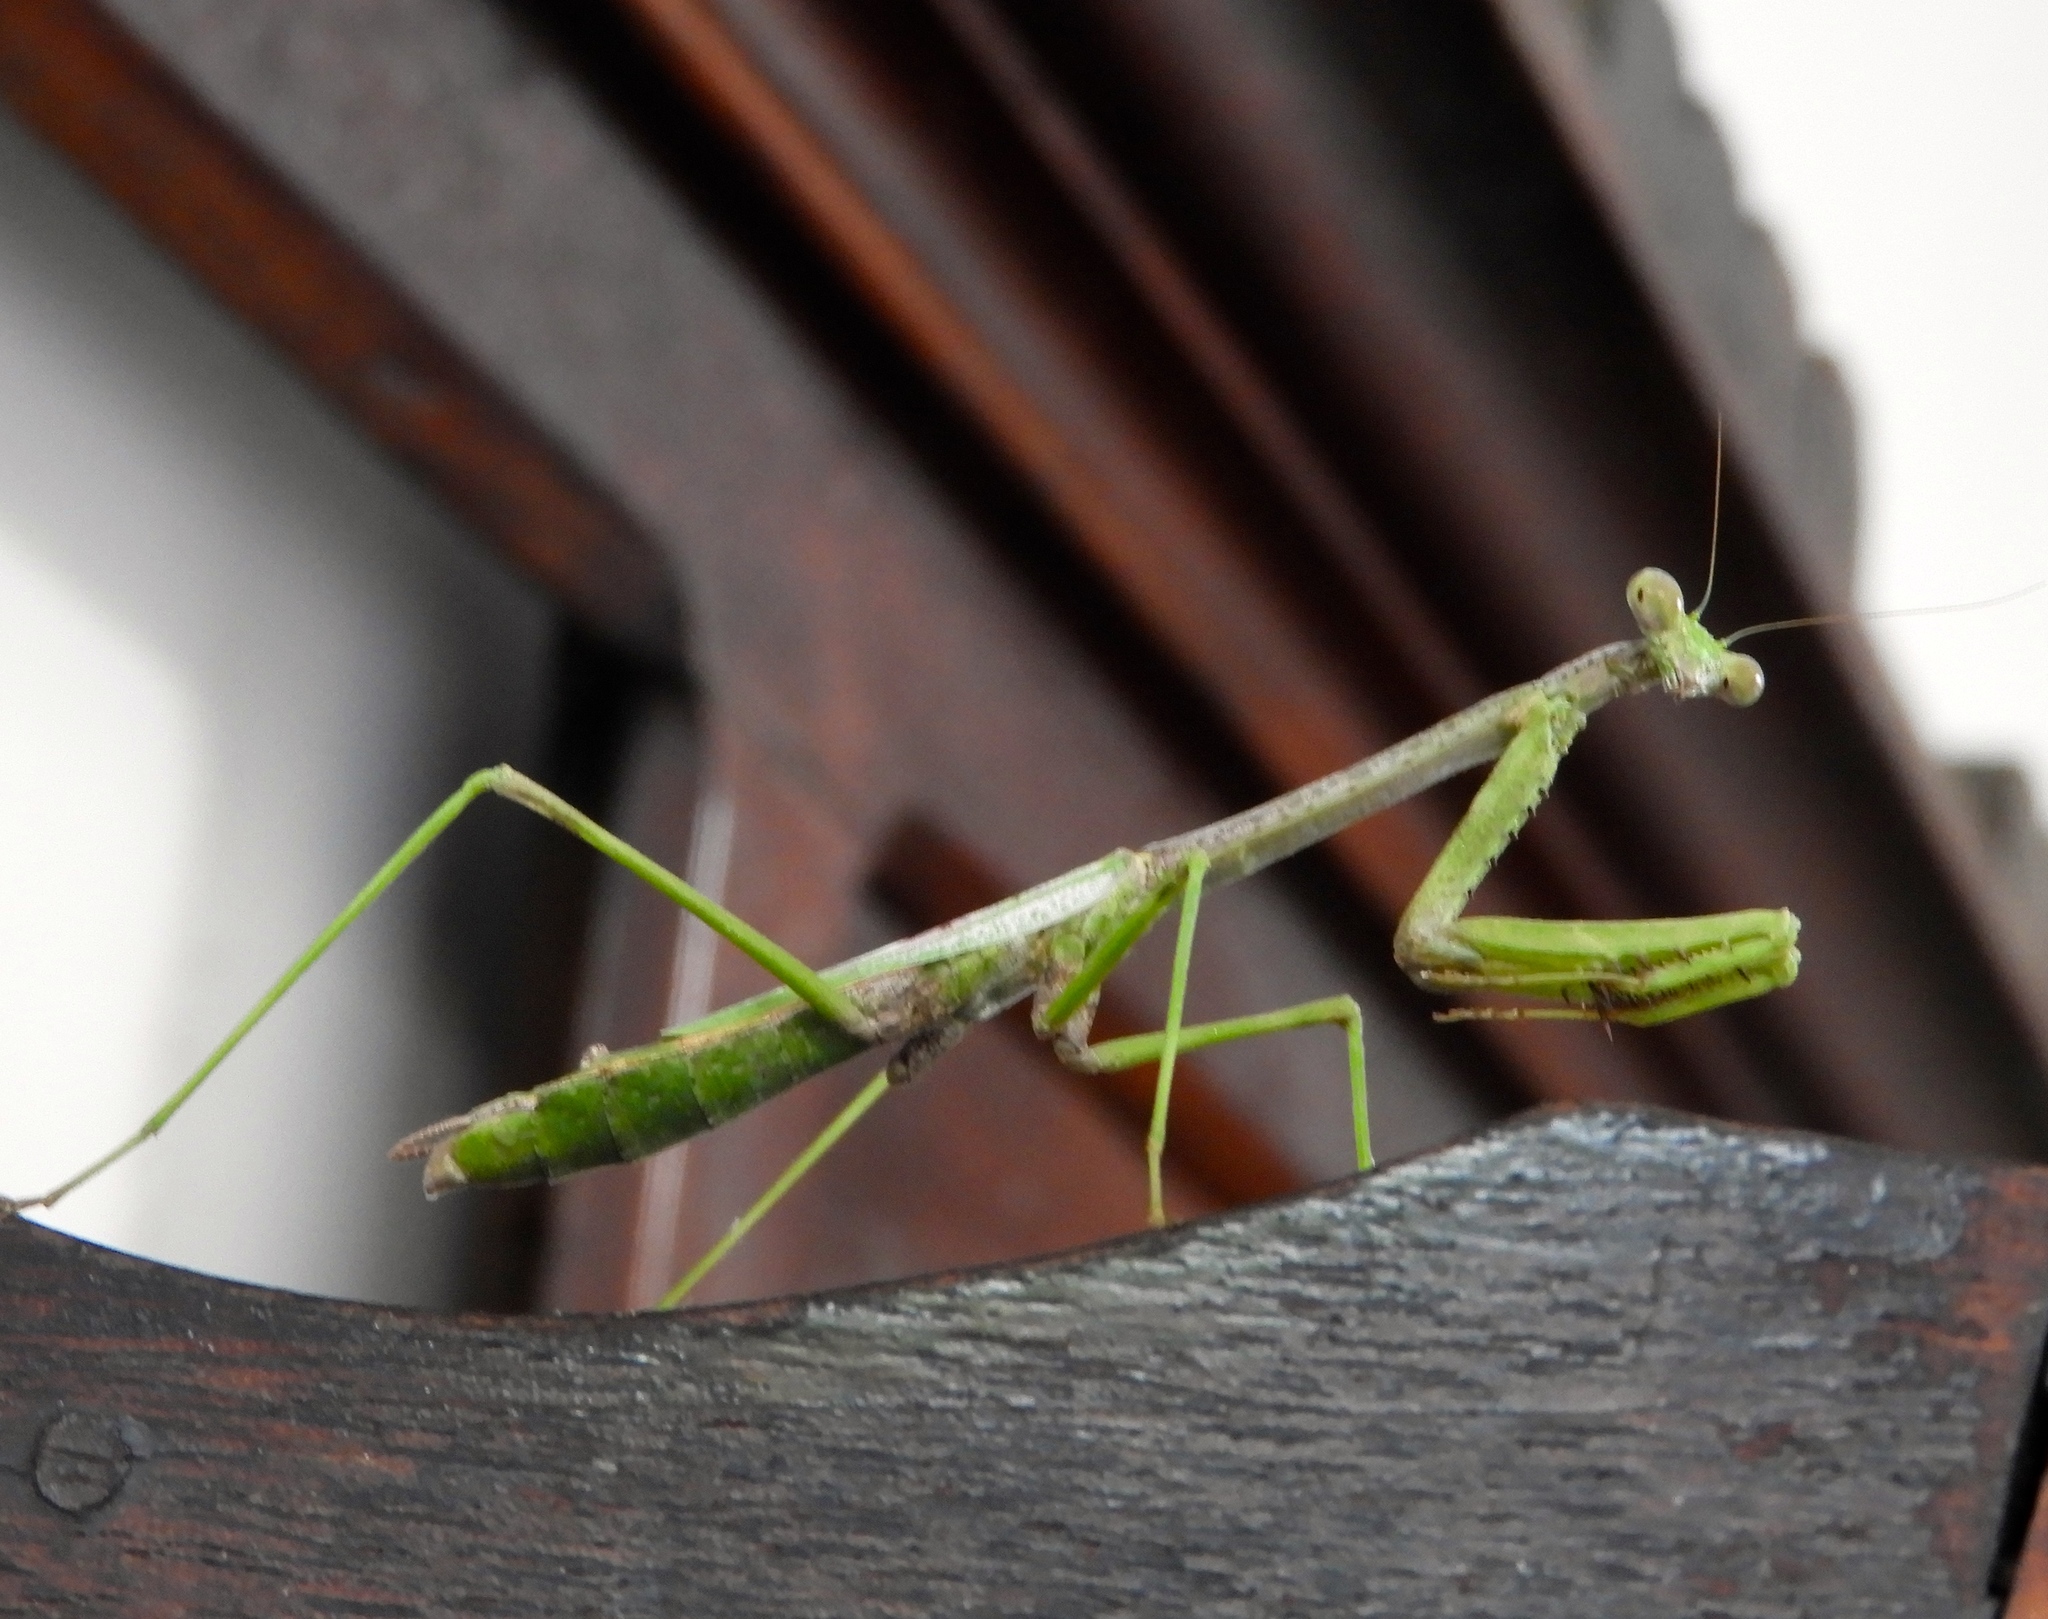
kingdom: Animalia
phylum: Arthropoda
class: Insecta
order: Mantodea
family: Mantidae
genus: Stagmomantis
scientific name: Stagmomantis carolina
